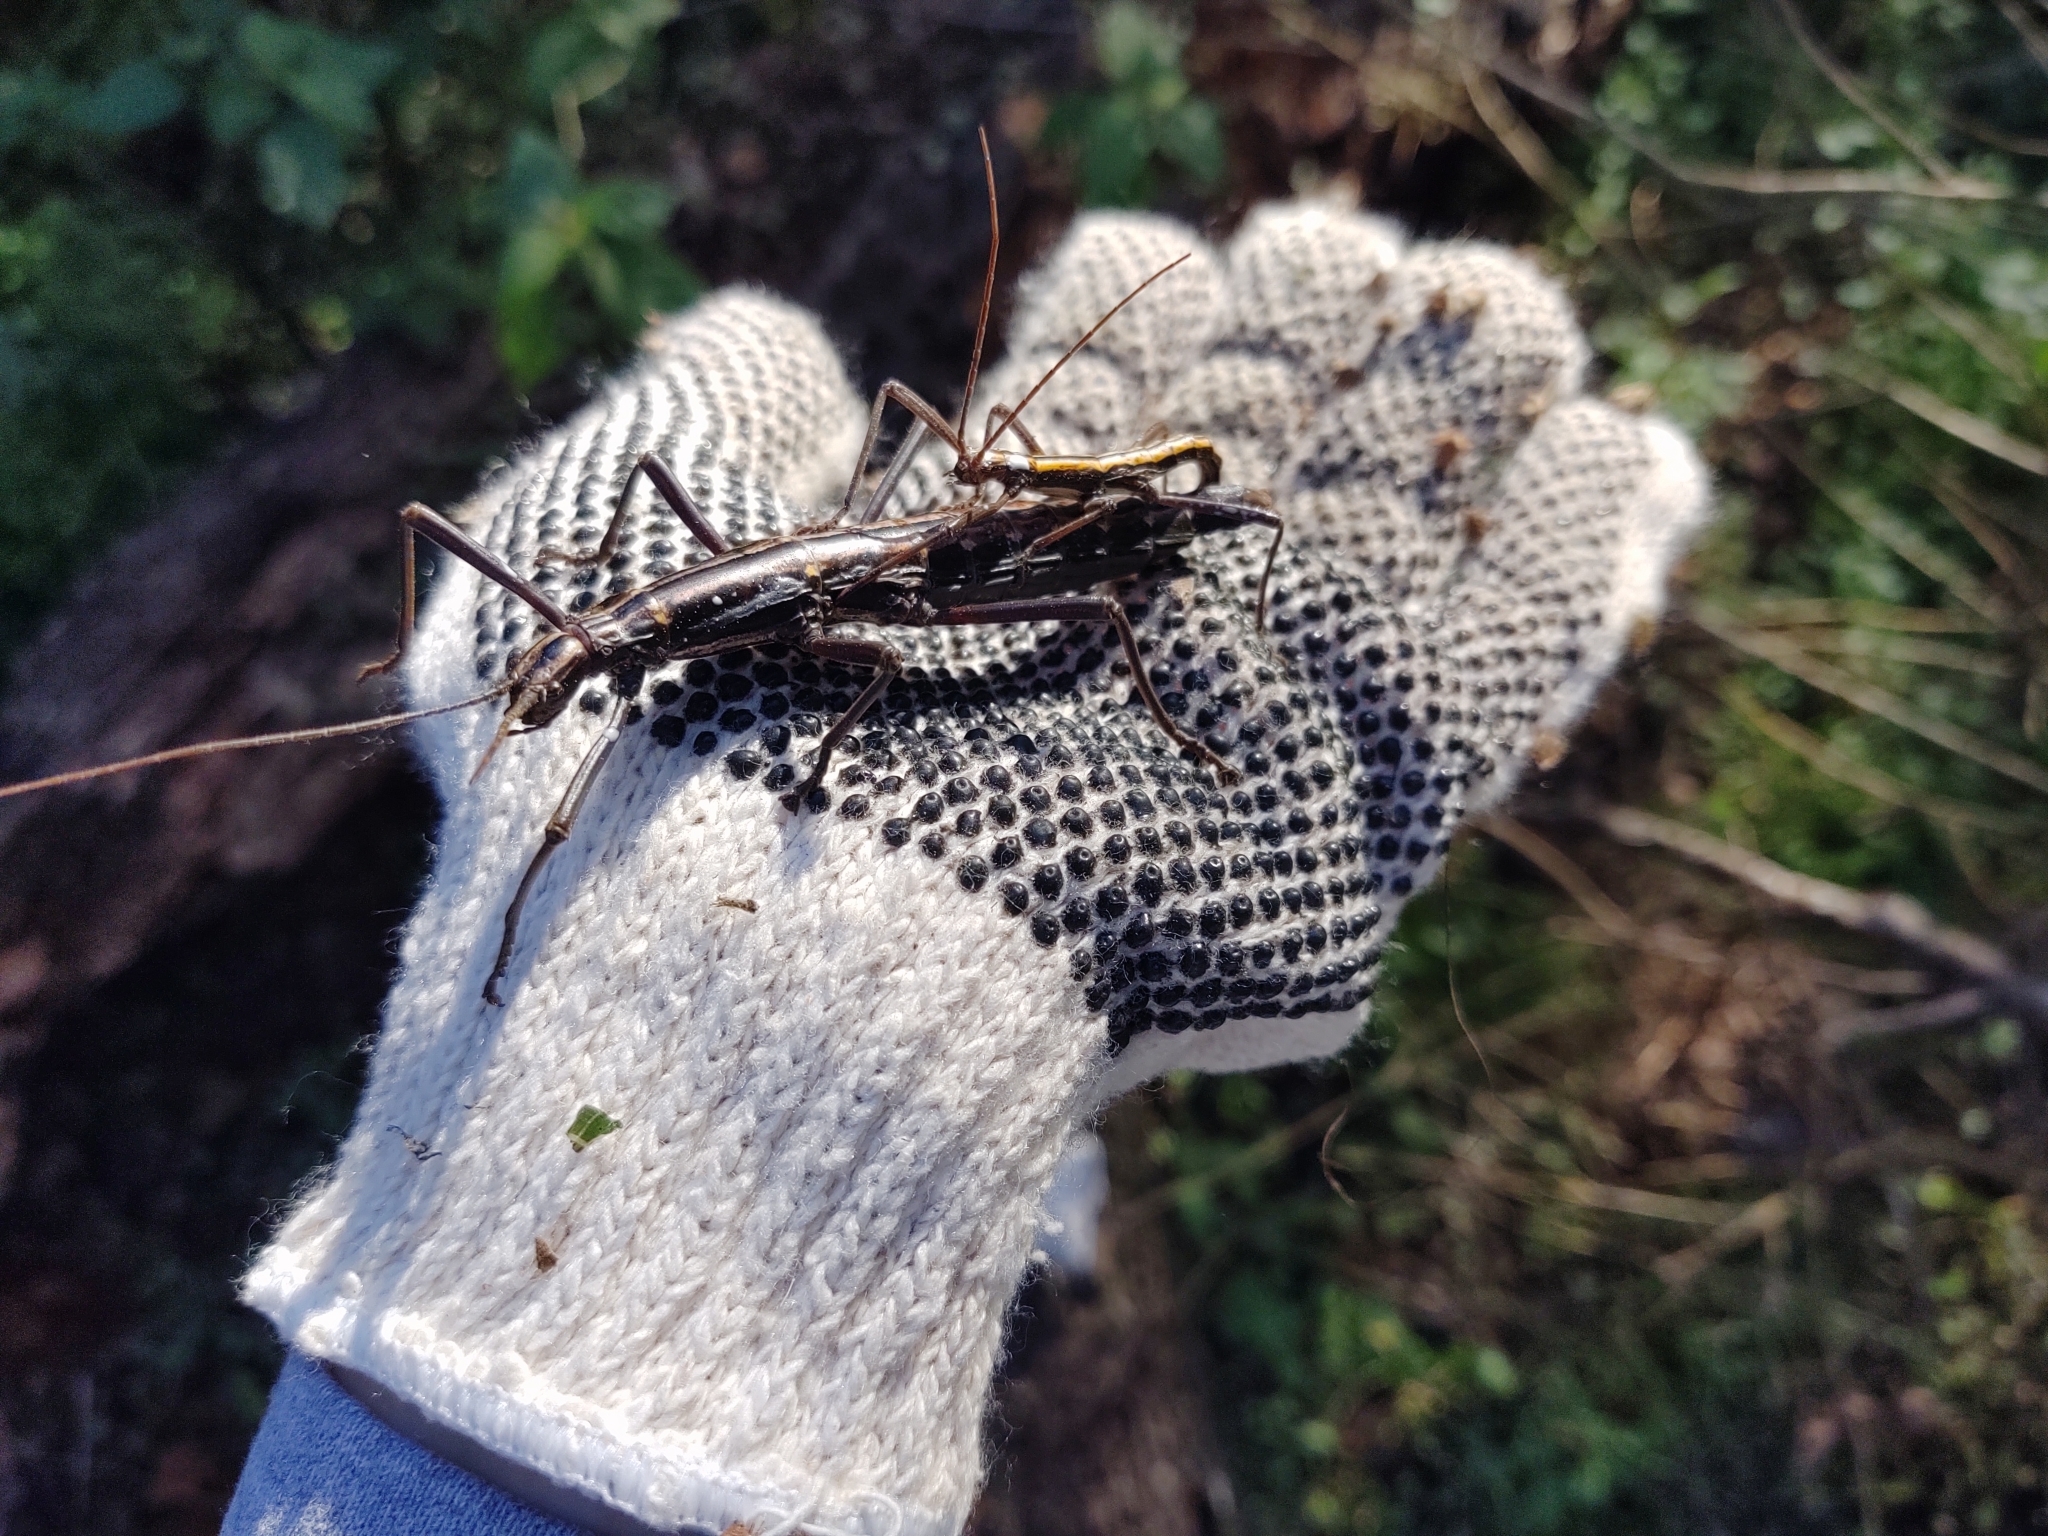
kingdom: Animalia
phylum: Arthropoda
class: Insecta
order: Phasmida
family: Pseudophasmatidae
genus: Anisomorpha
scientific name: Anisomorpha buprestoides
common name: Florida stick insect
